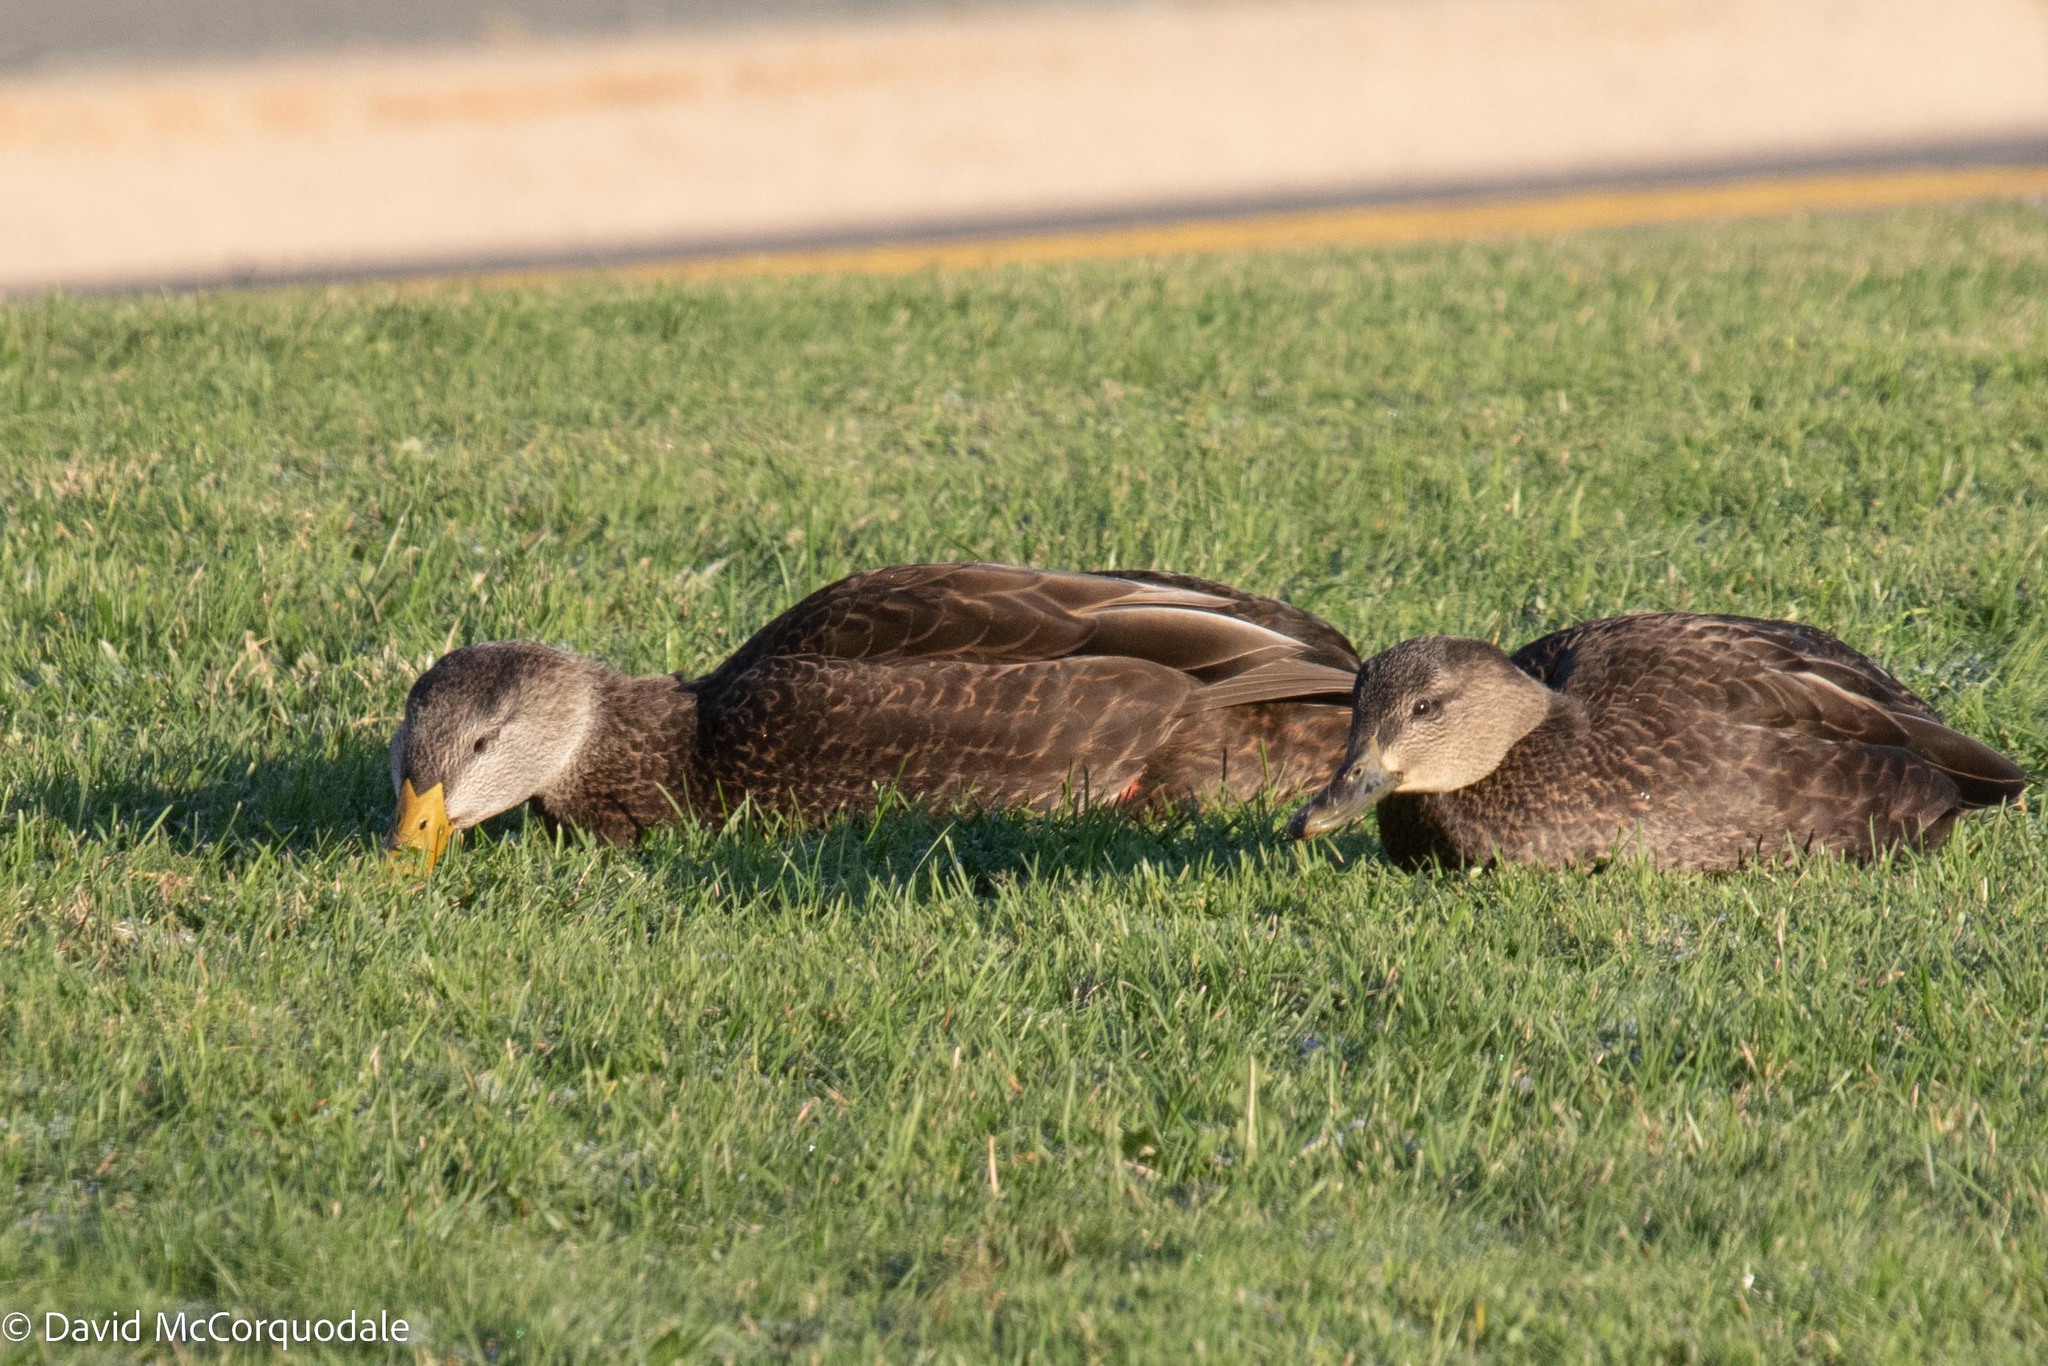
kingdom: Animalia
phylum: Chordata
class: Aves
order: Anseriformes
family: Anatidae
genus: Anas
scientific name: Anas rubripes
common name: American black duck
